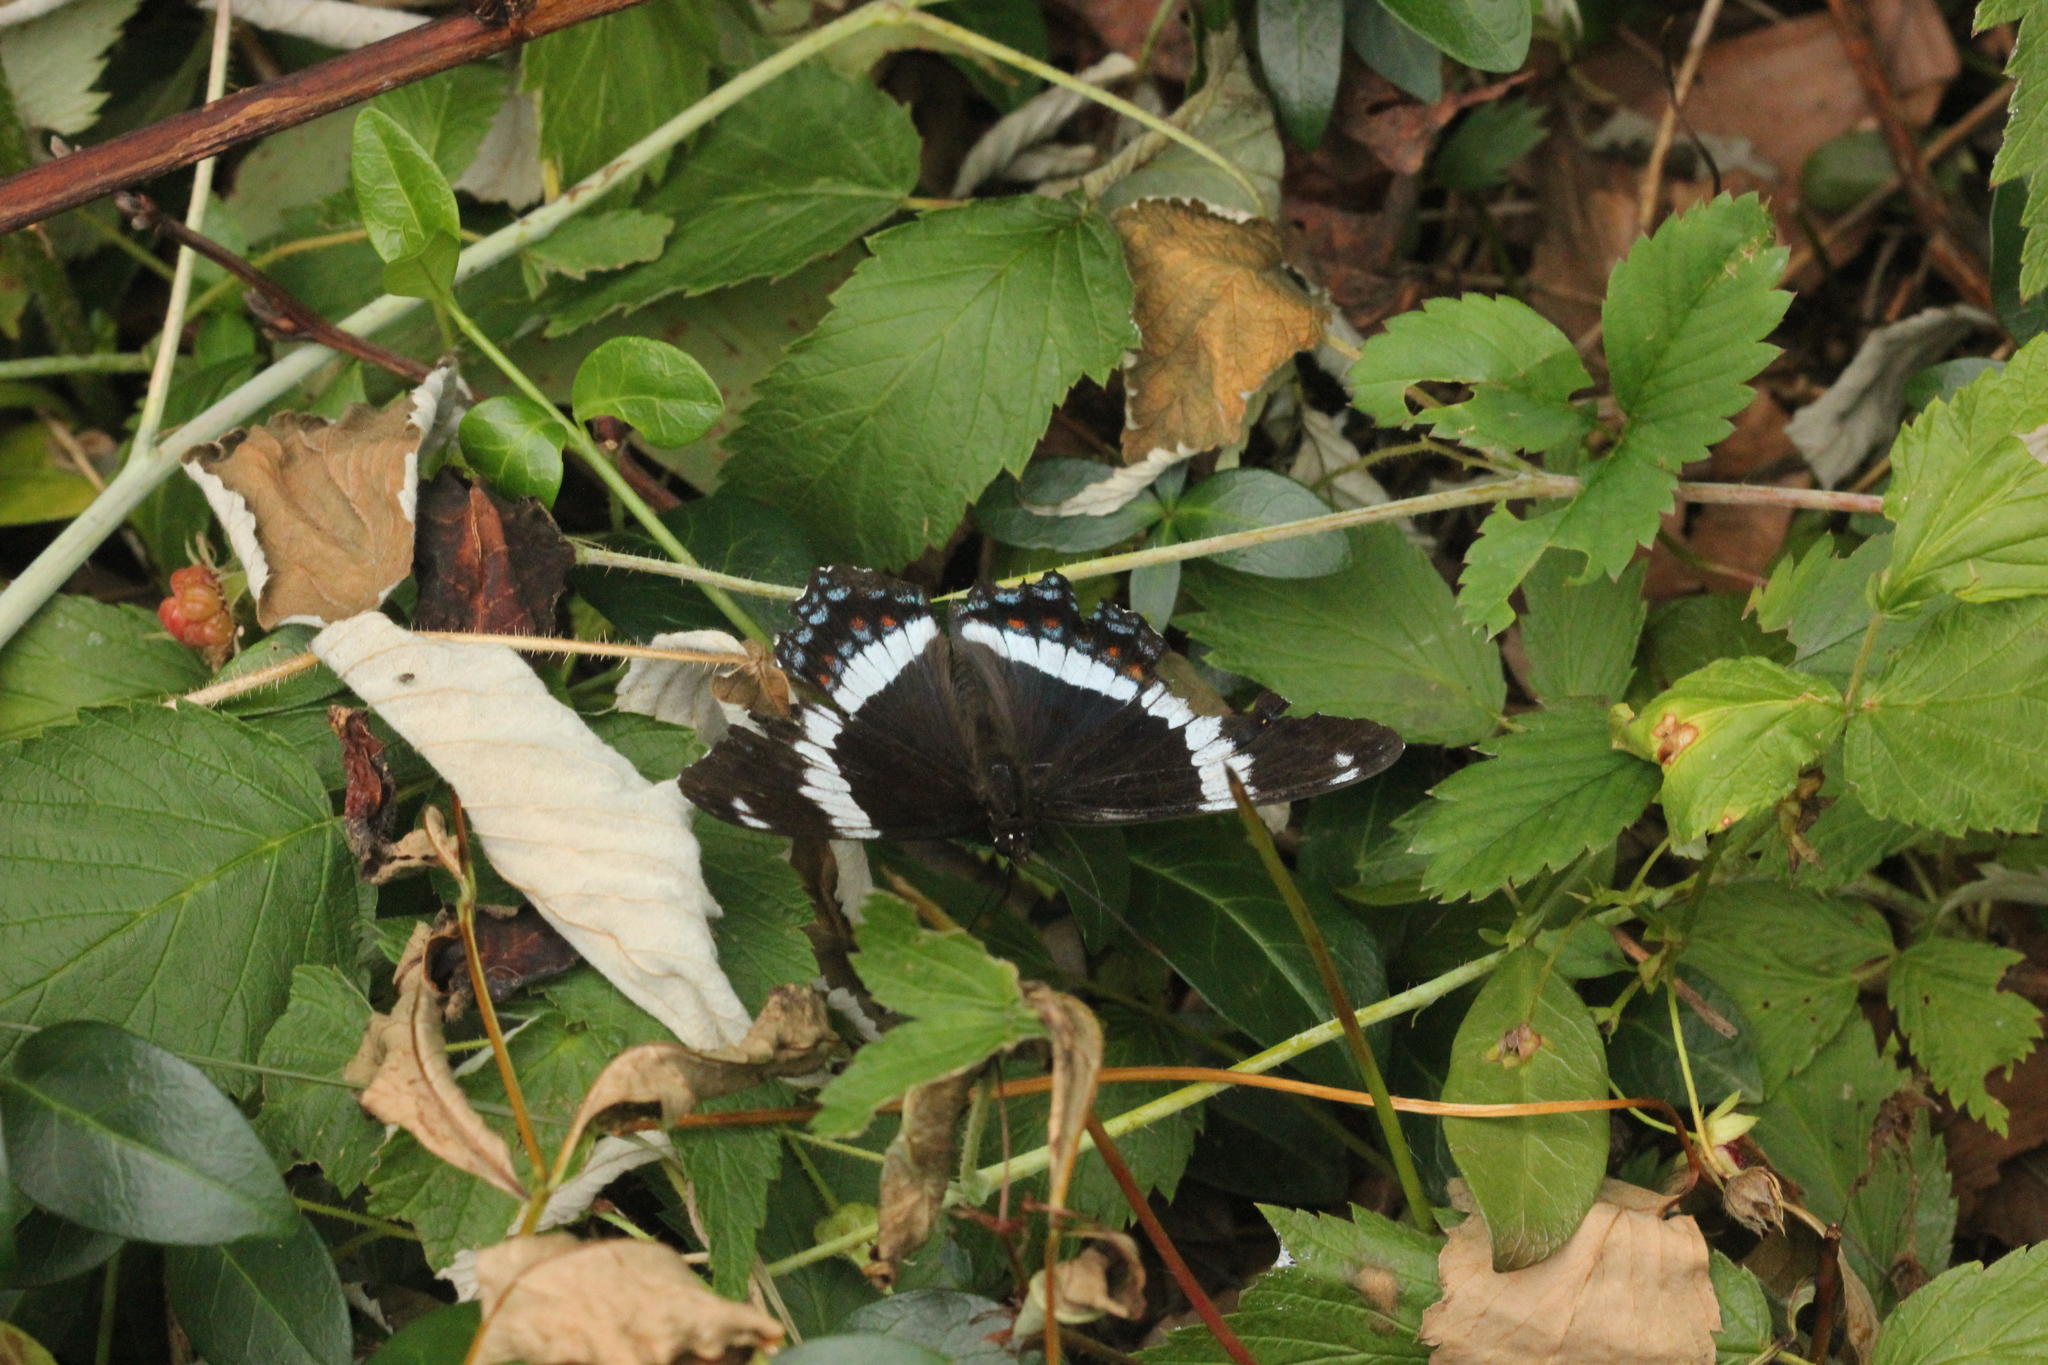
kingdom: Animalia
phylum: Arthropoda
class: Insecta
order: Lepidoptera
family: Nymphalidae
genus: Limenitis
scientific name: Limenitis arthemis
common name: Red-spotted admiral
